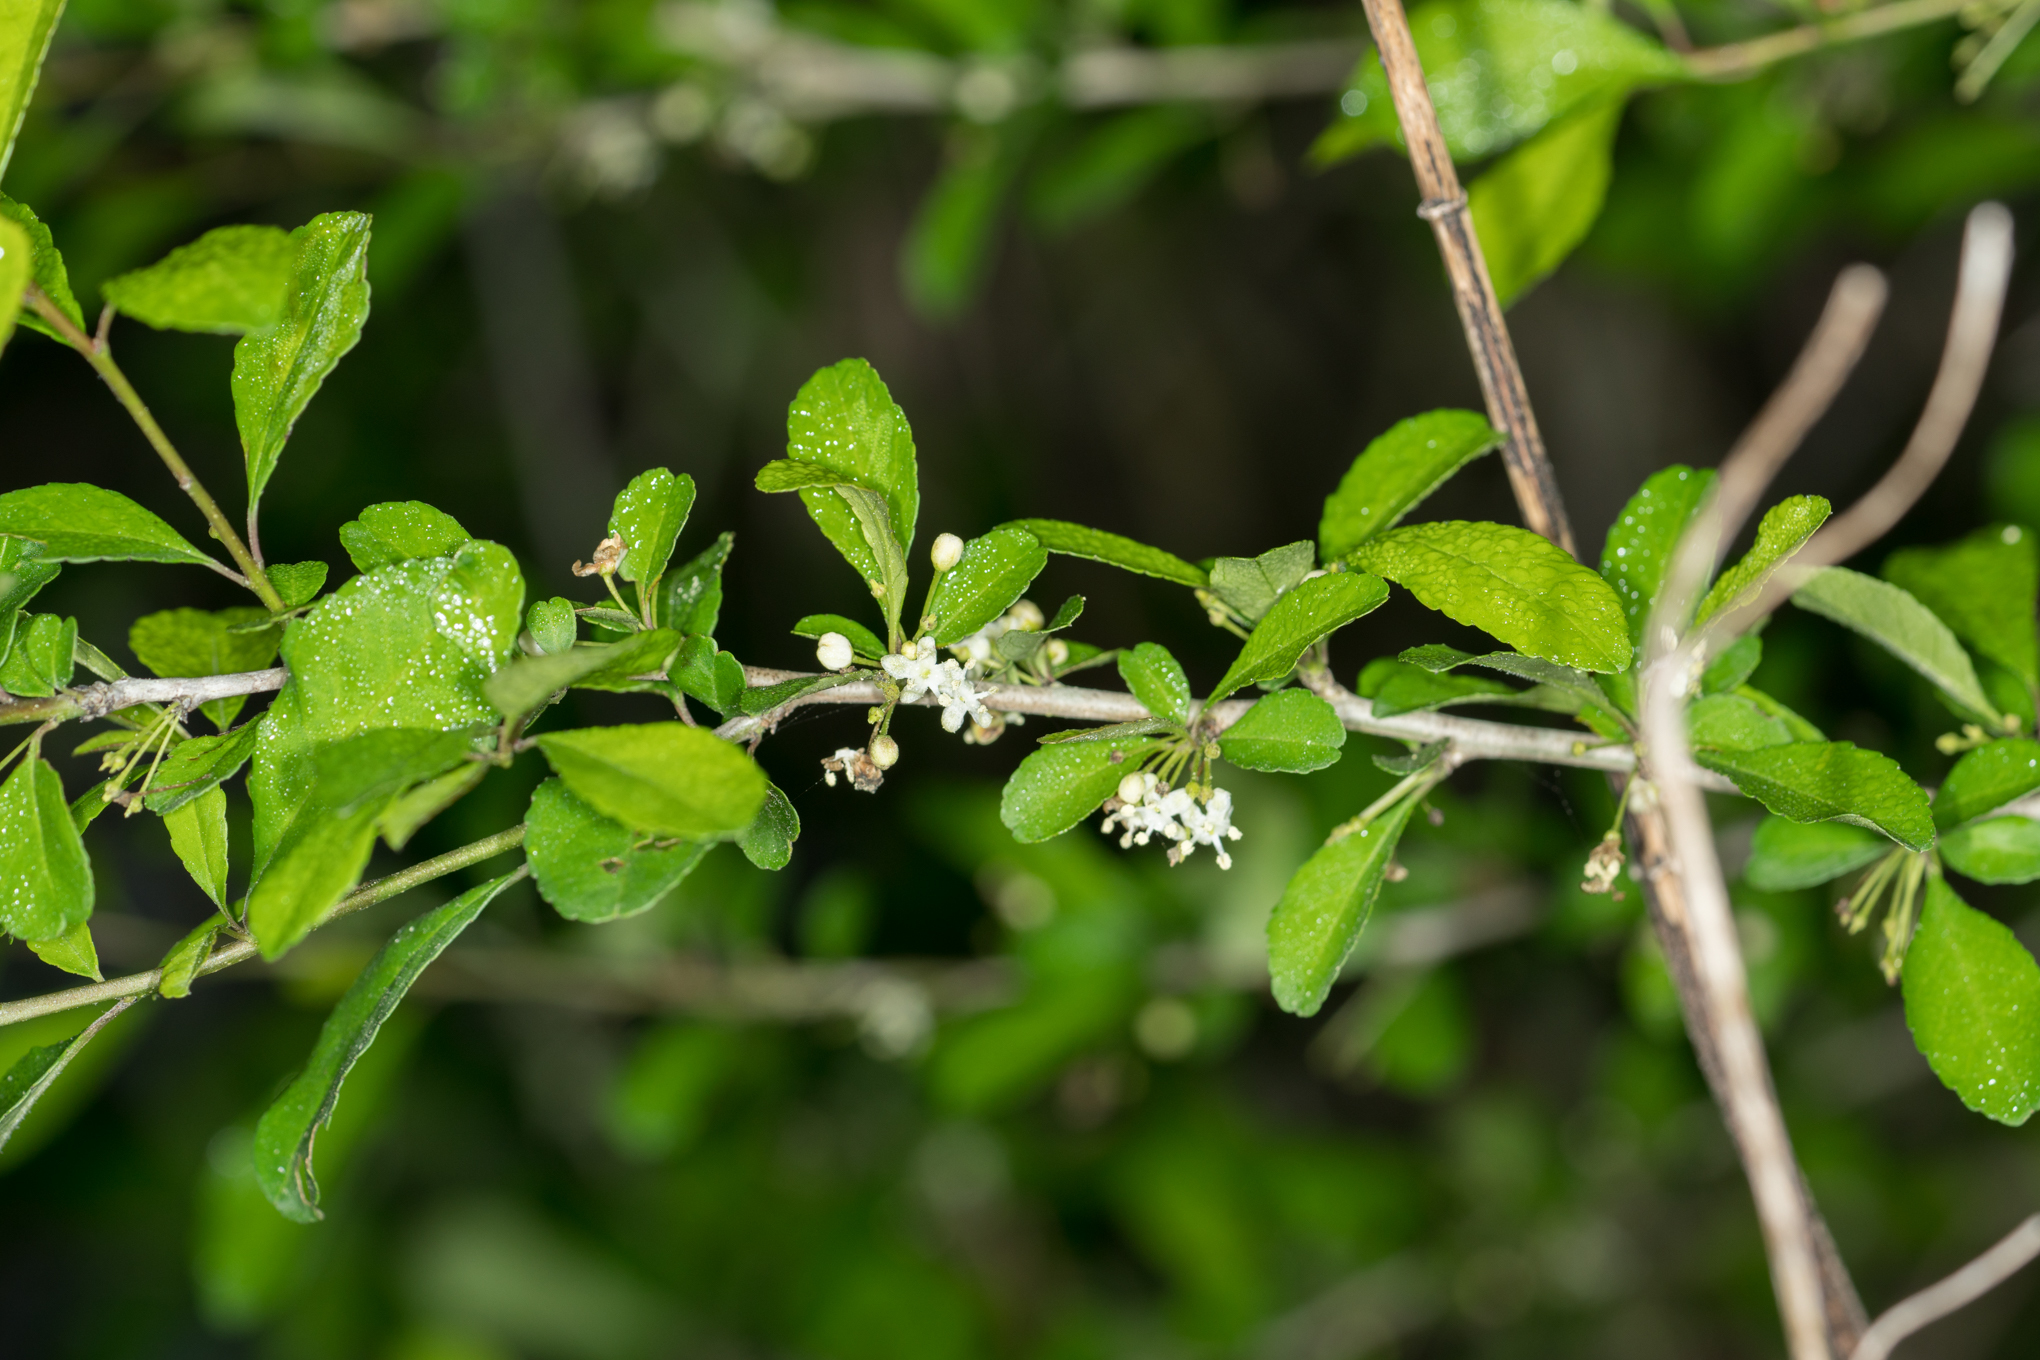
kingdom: Plantae
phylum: Tracheophyta
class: Magnoliopsida
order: Aquifoliales
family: Aquifoliaceae
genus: Ilex
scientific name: Ilex decidua
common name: Possum-haw
